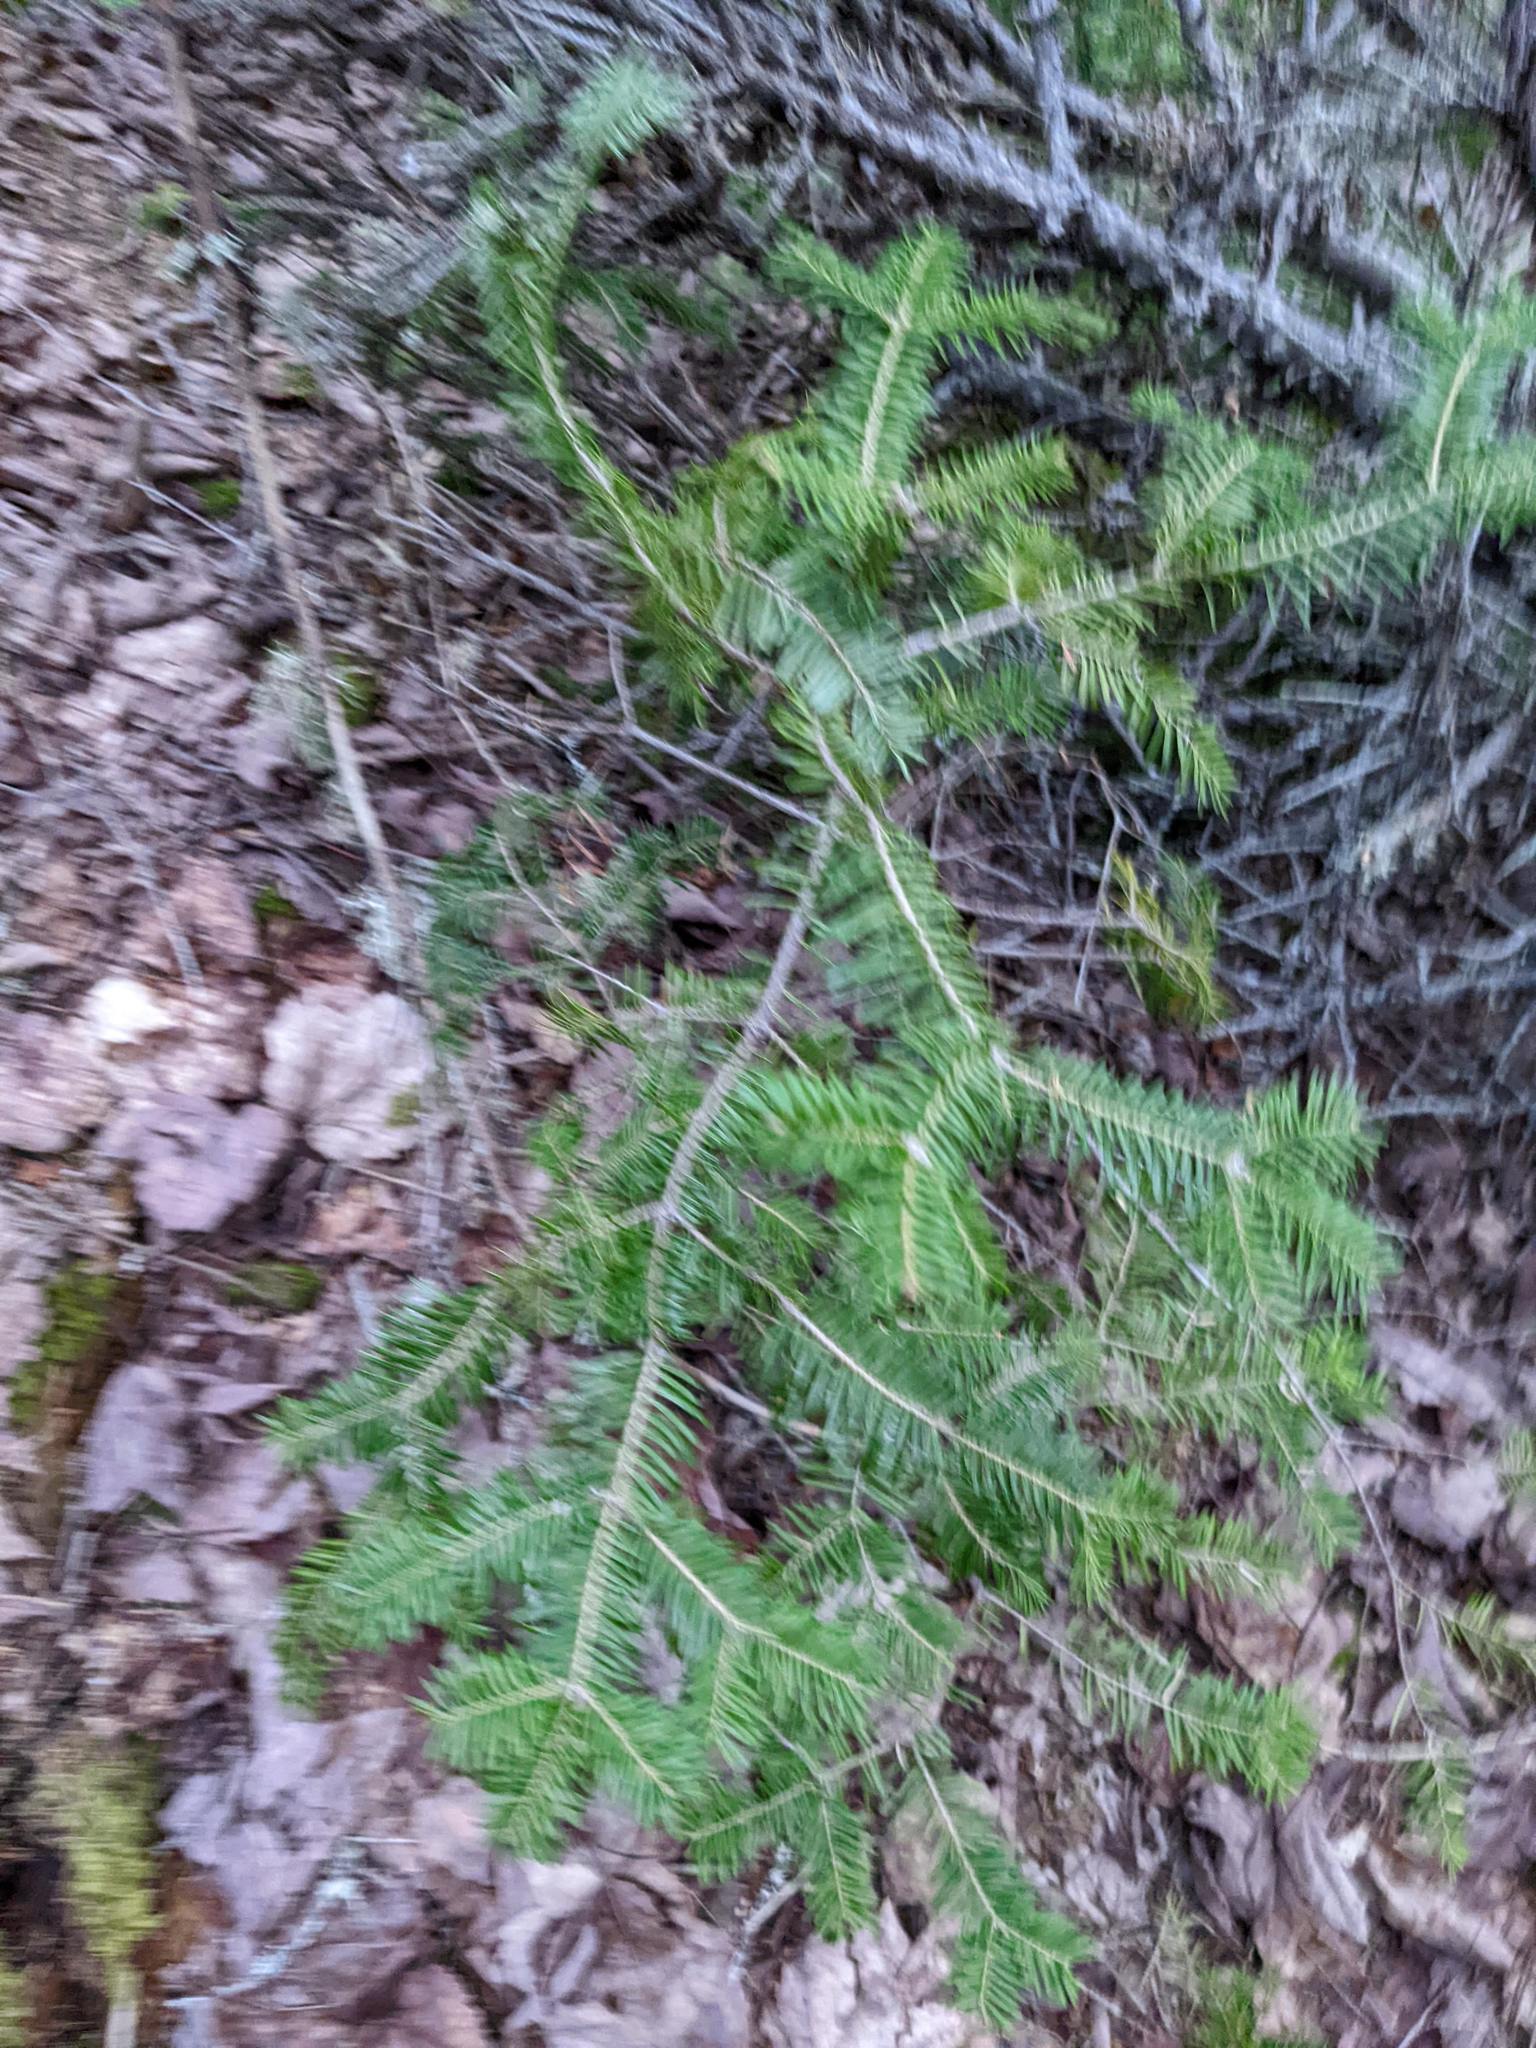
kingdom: Plantae
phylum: Tracheophyta
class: Pinopsida
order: Pinales
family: Pinaceae
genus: Abies
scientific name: Abies balsamea
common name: Balsam fir
